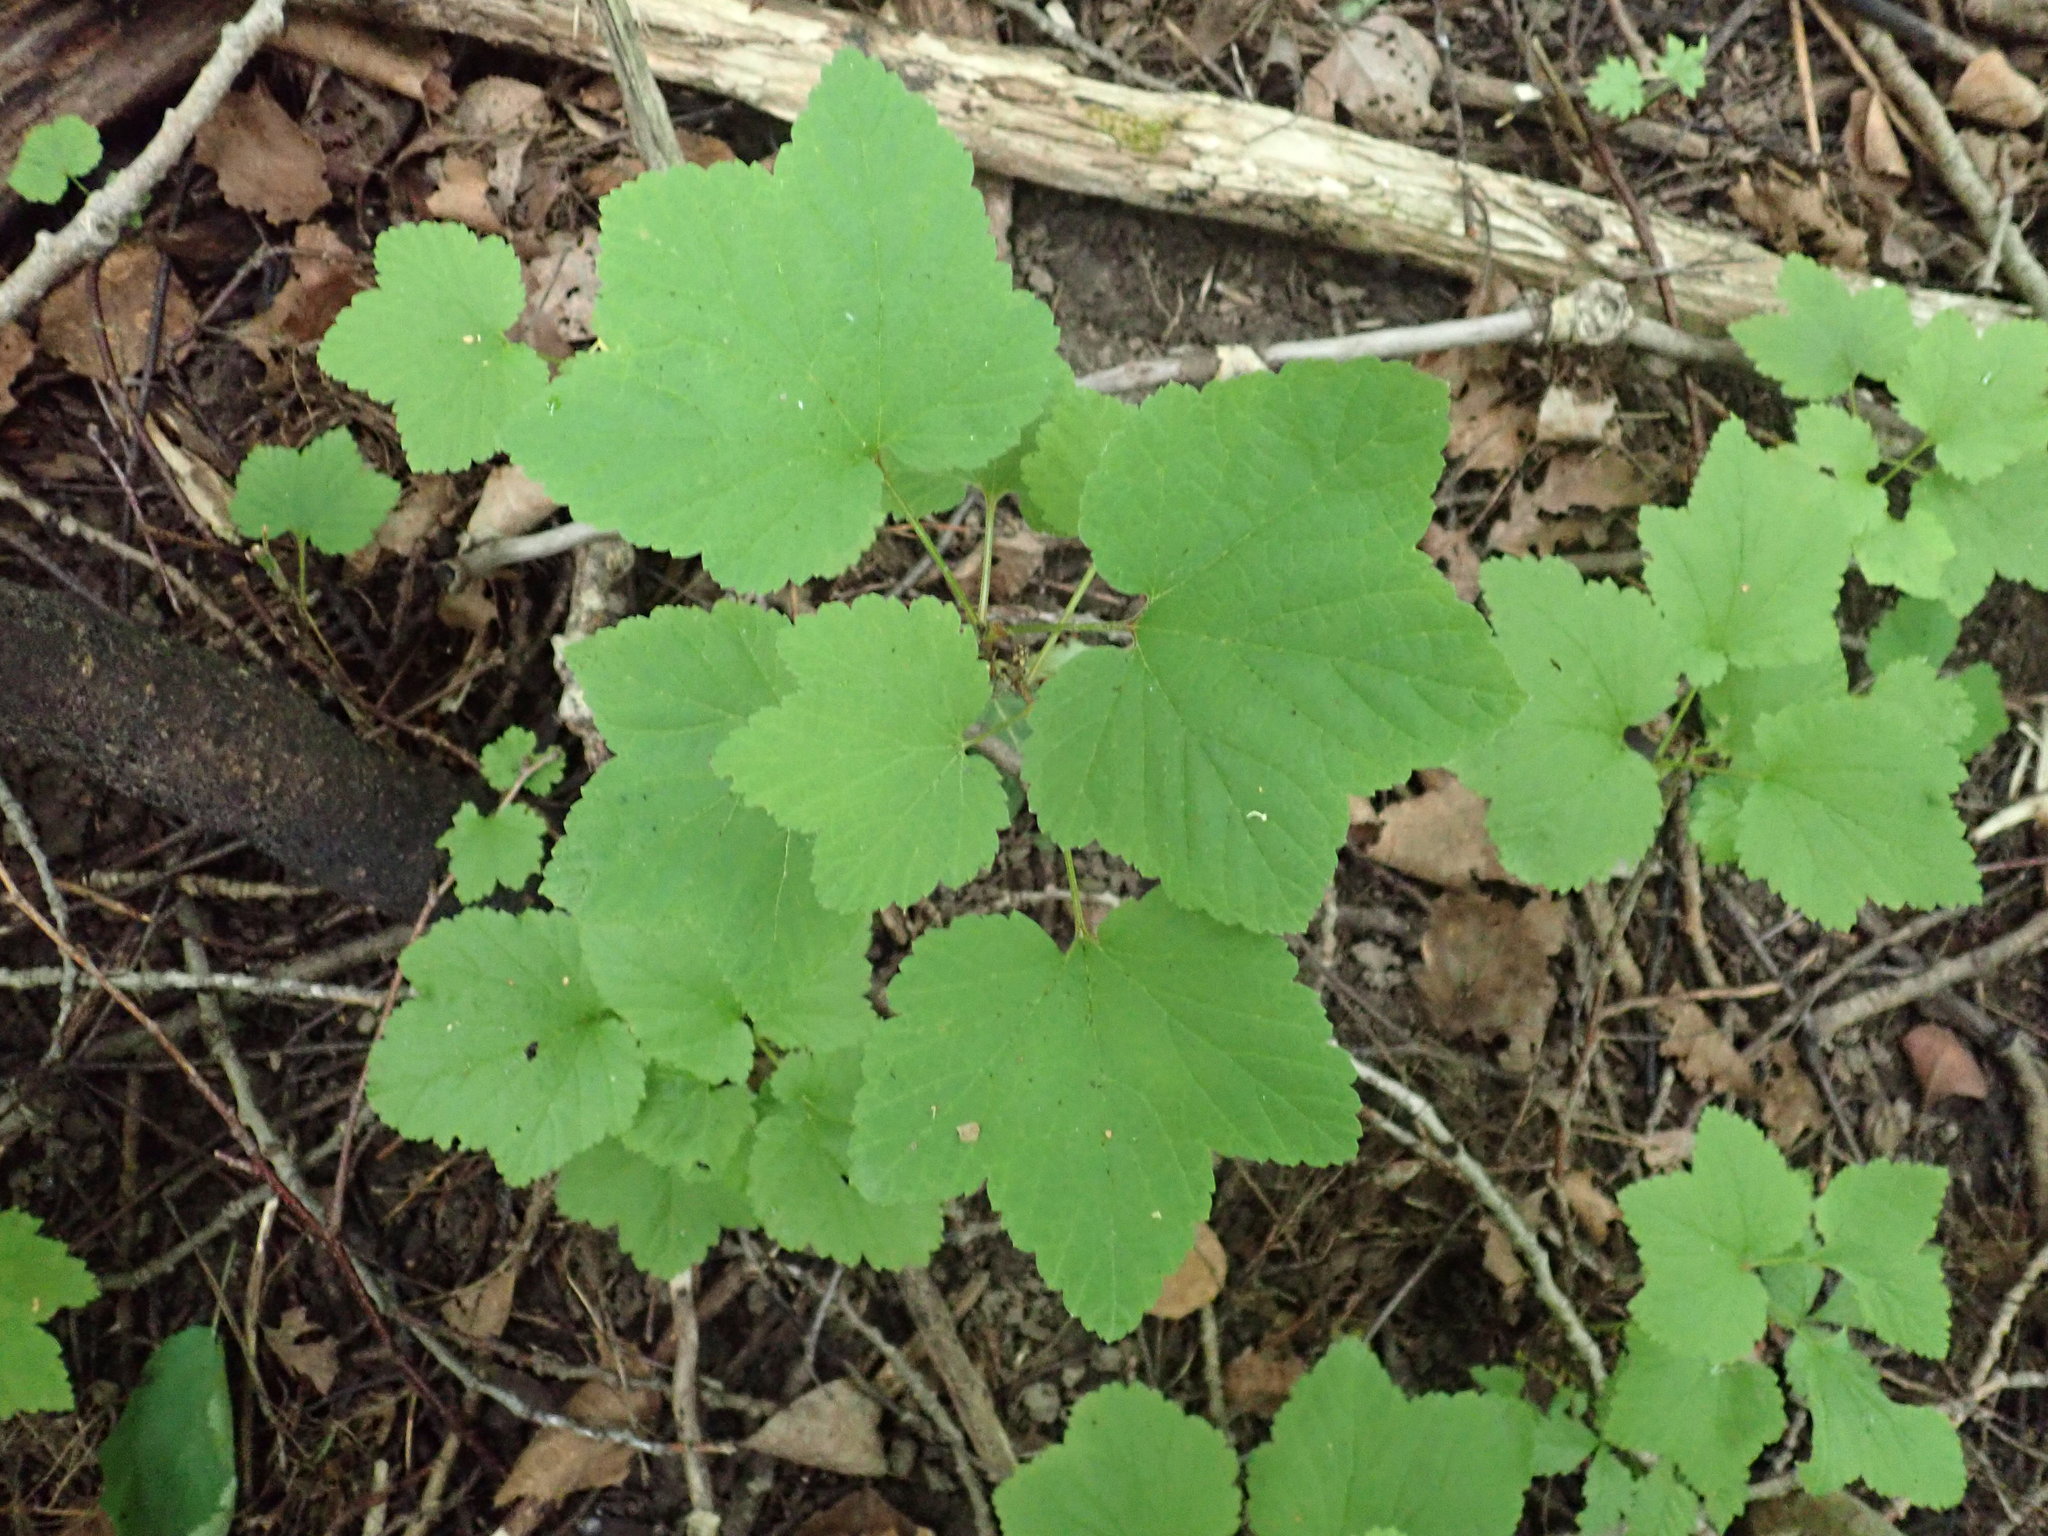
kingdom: Plantae
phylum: Tracheophyta
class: Magnoliopsida
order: Saxifragales
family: Grossulariaceae
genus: Ribes
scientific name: Ribes triste
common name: Swamp red currant
